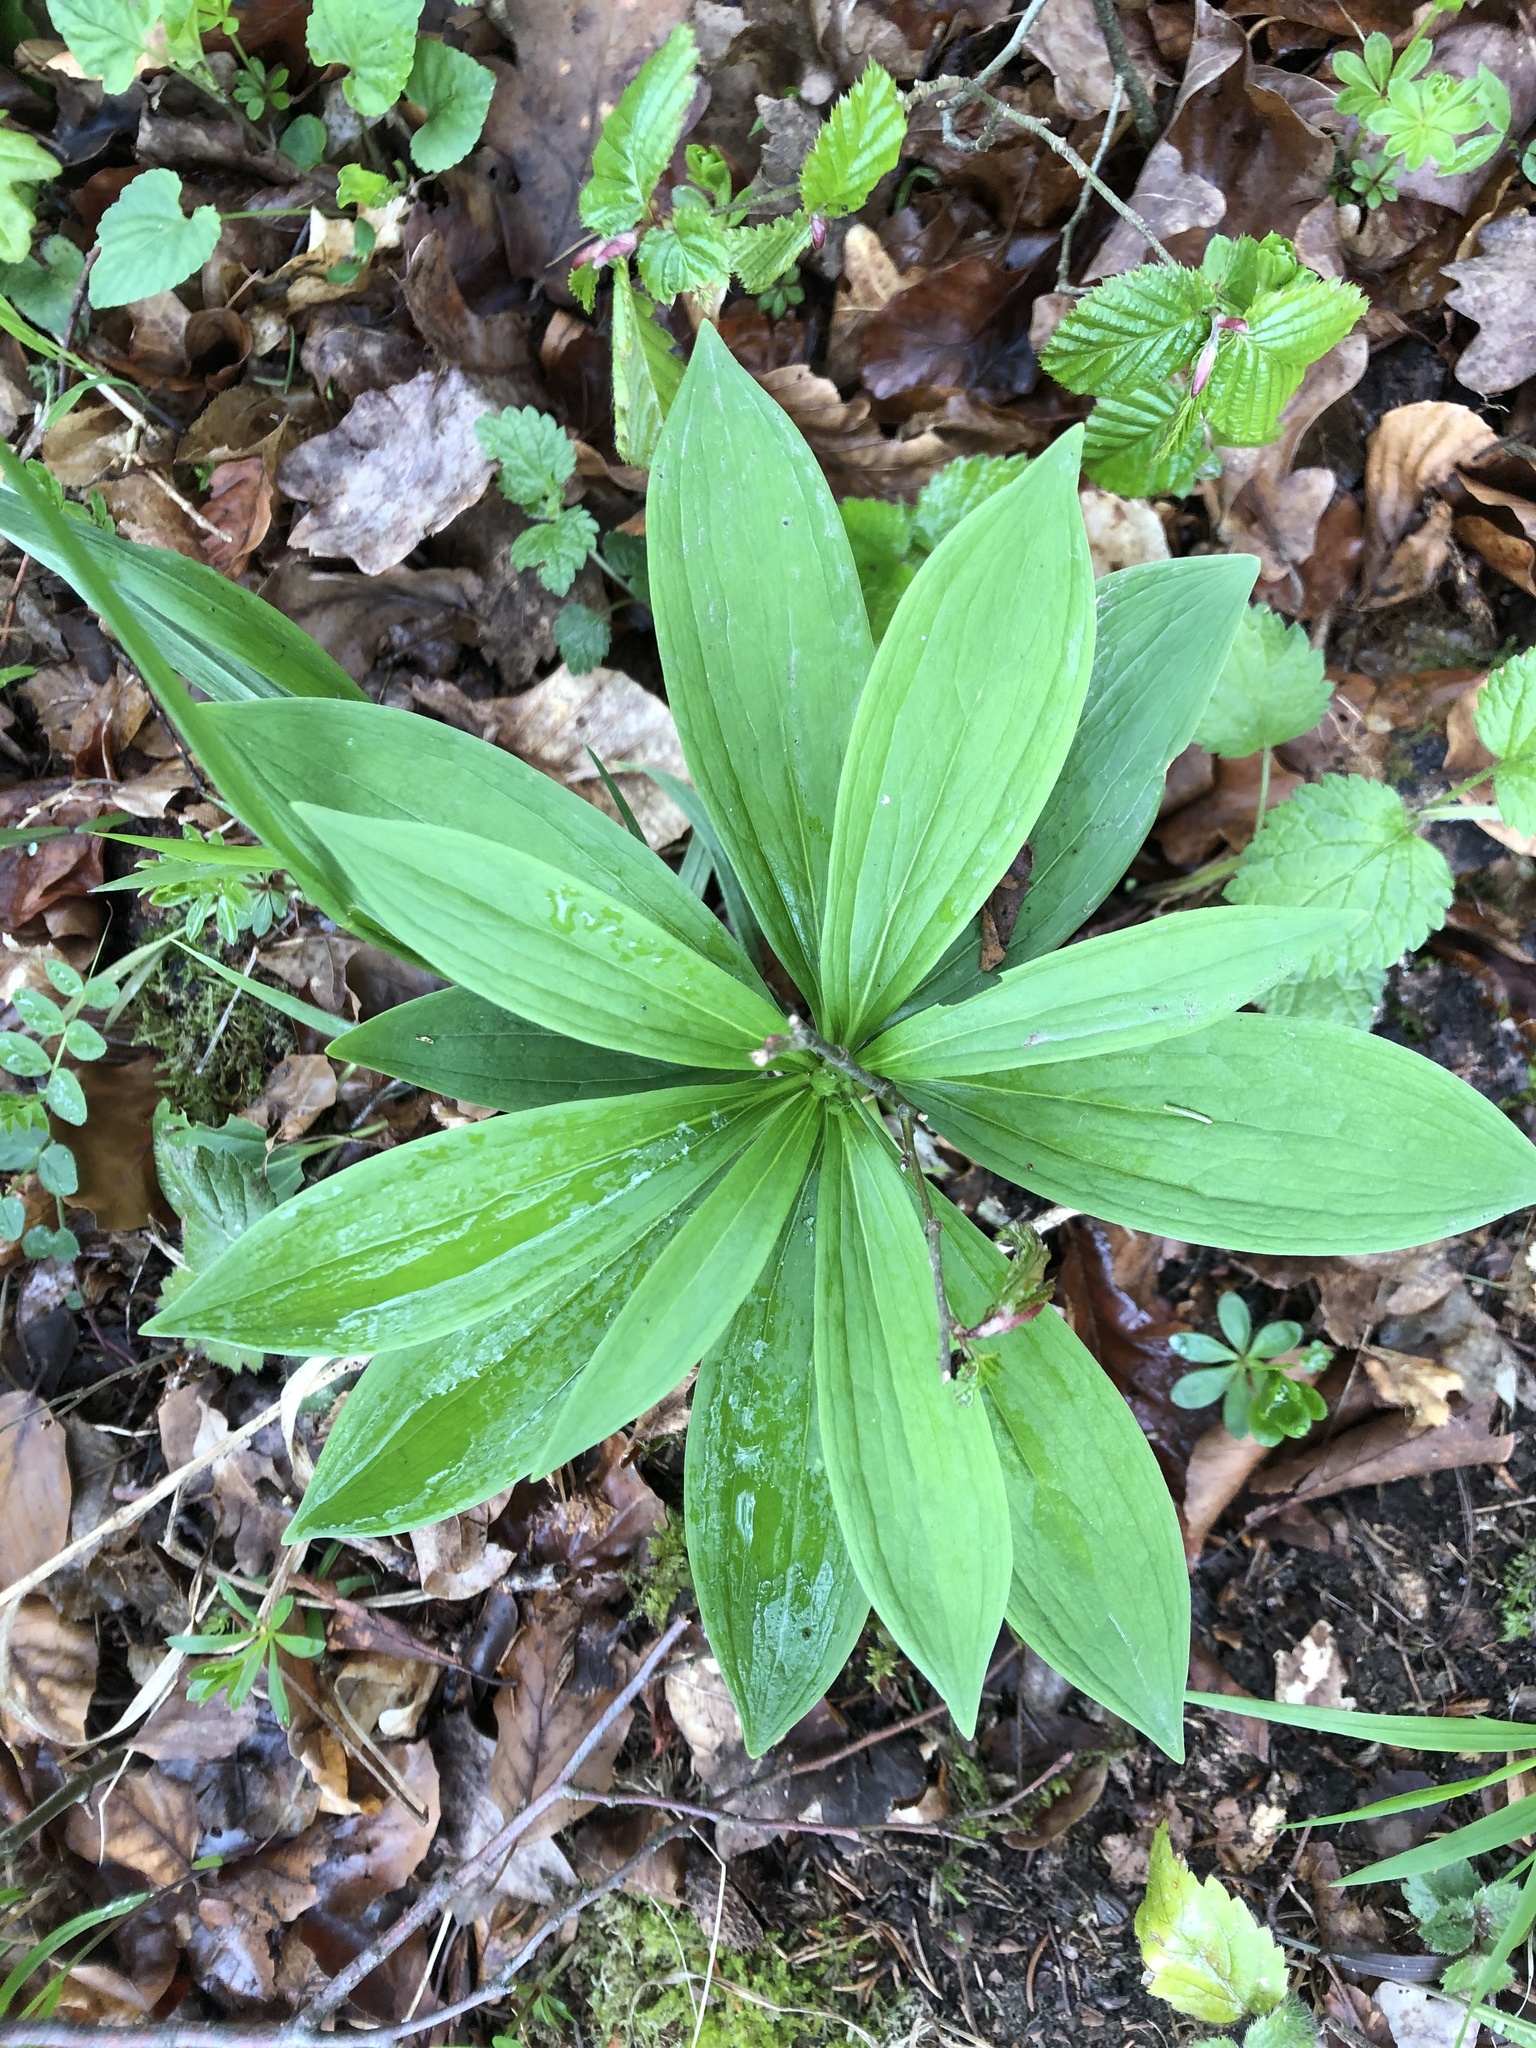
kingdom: Plantae
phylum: Tracheophyta
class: Liliopsida
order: Liliales
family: Liliaceae
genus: Lilium
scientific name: Lilium martagon
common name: Martagon lily
